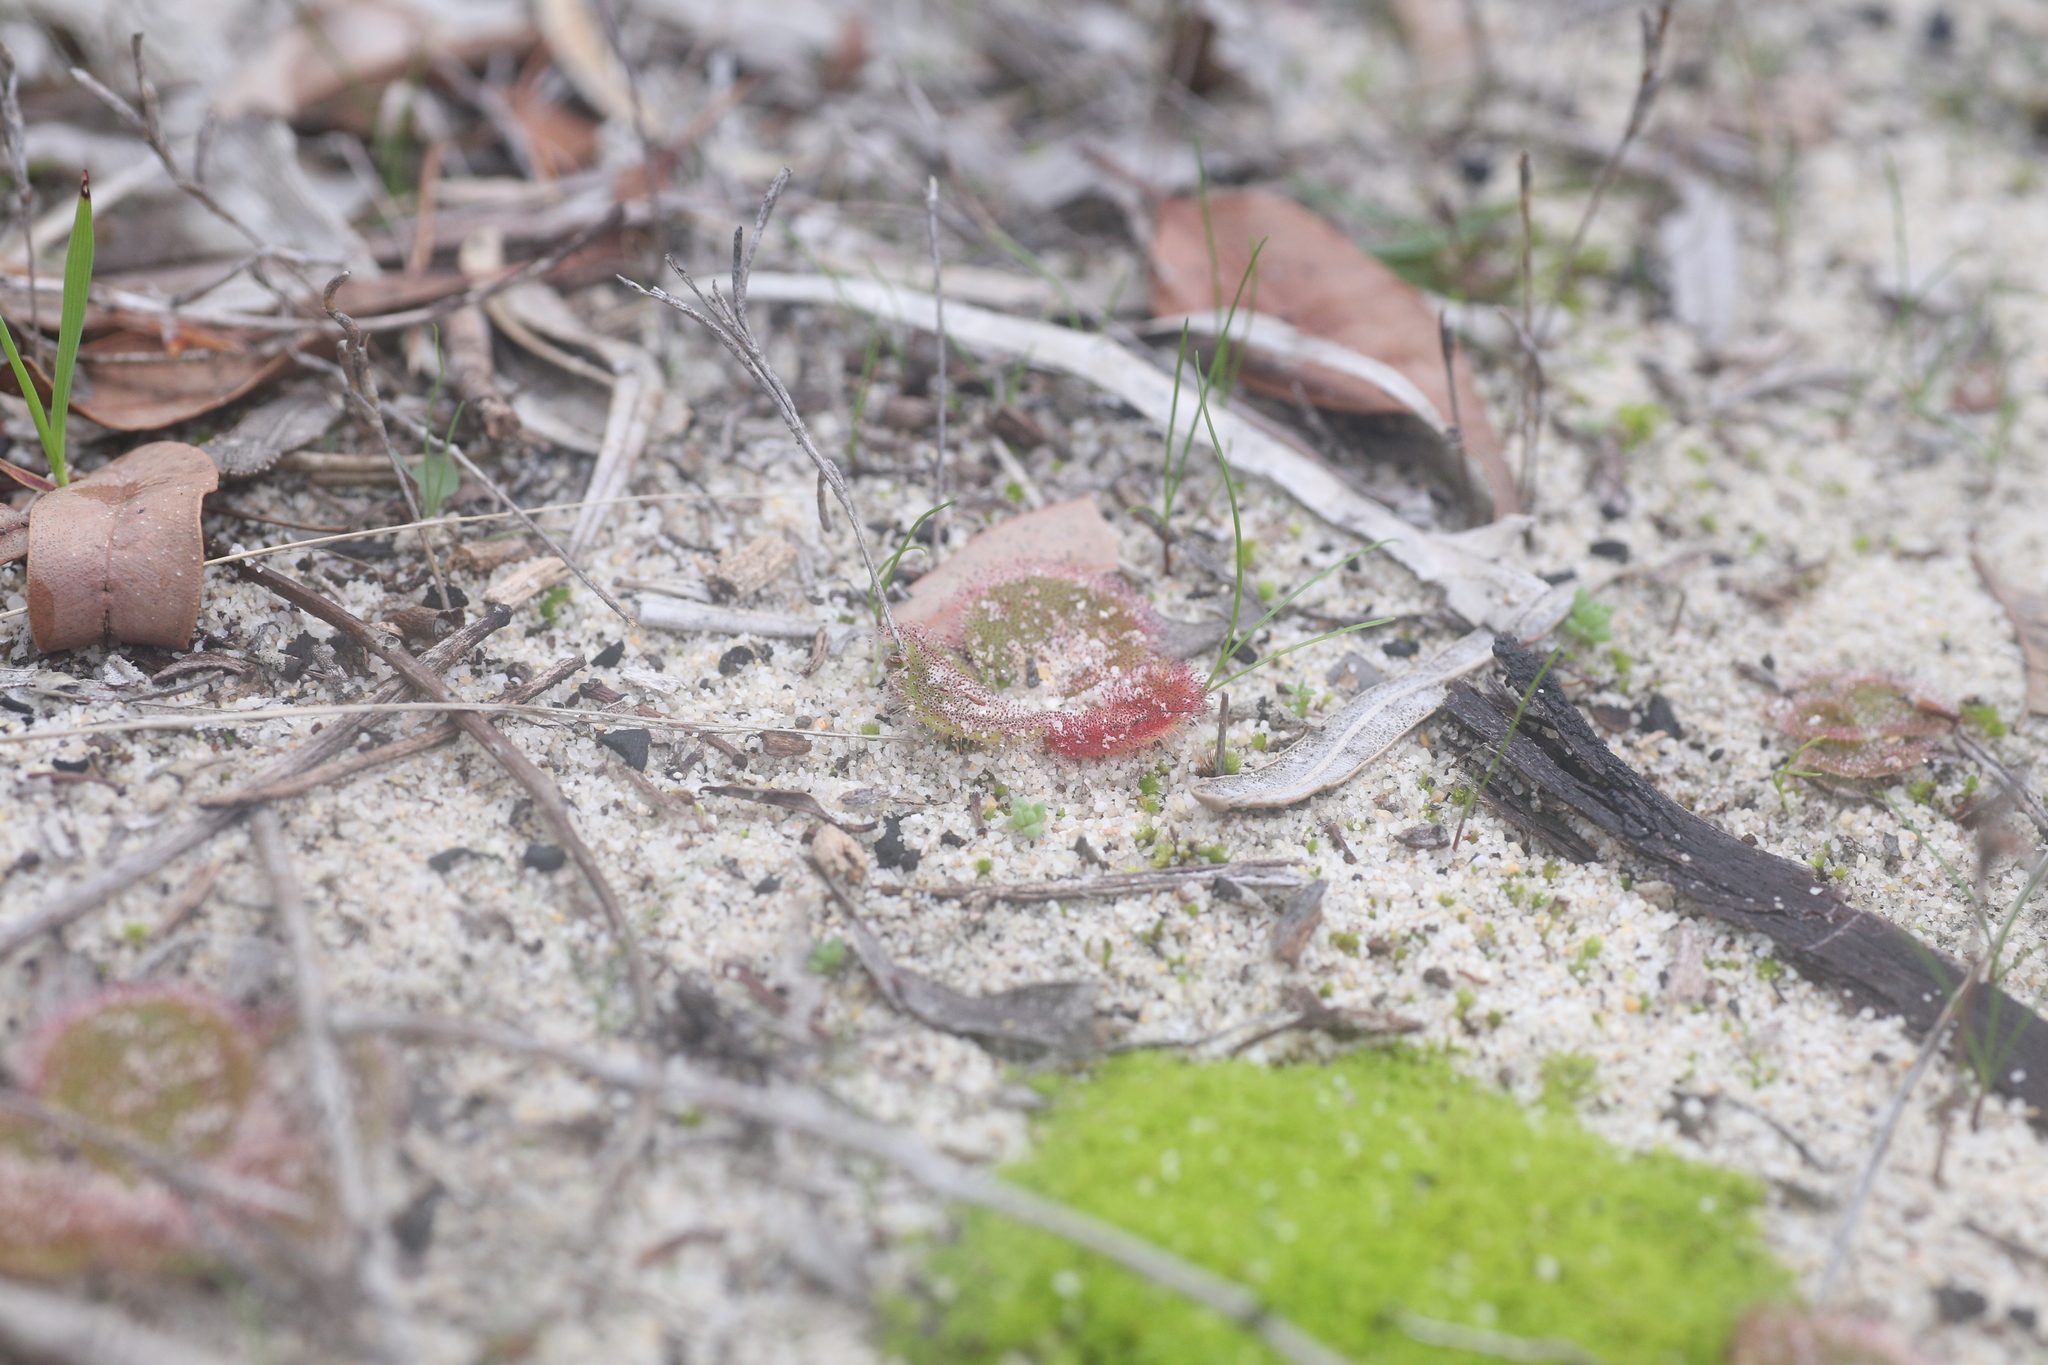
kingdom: Plantae
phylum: Tracheophyta
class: Magnoliopsida
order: Caryophyllales
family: Droseraceae
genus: Drosera
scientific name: Drosera erythrorhiza
